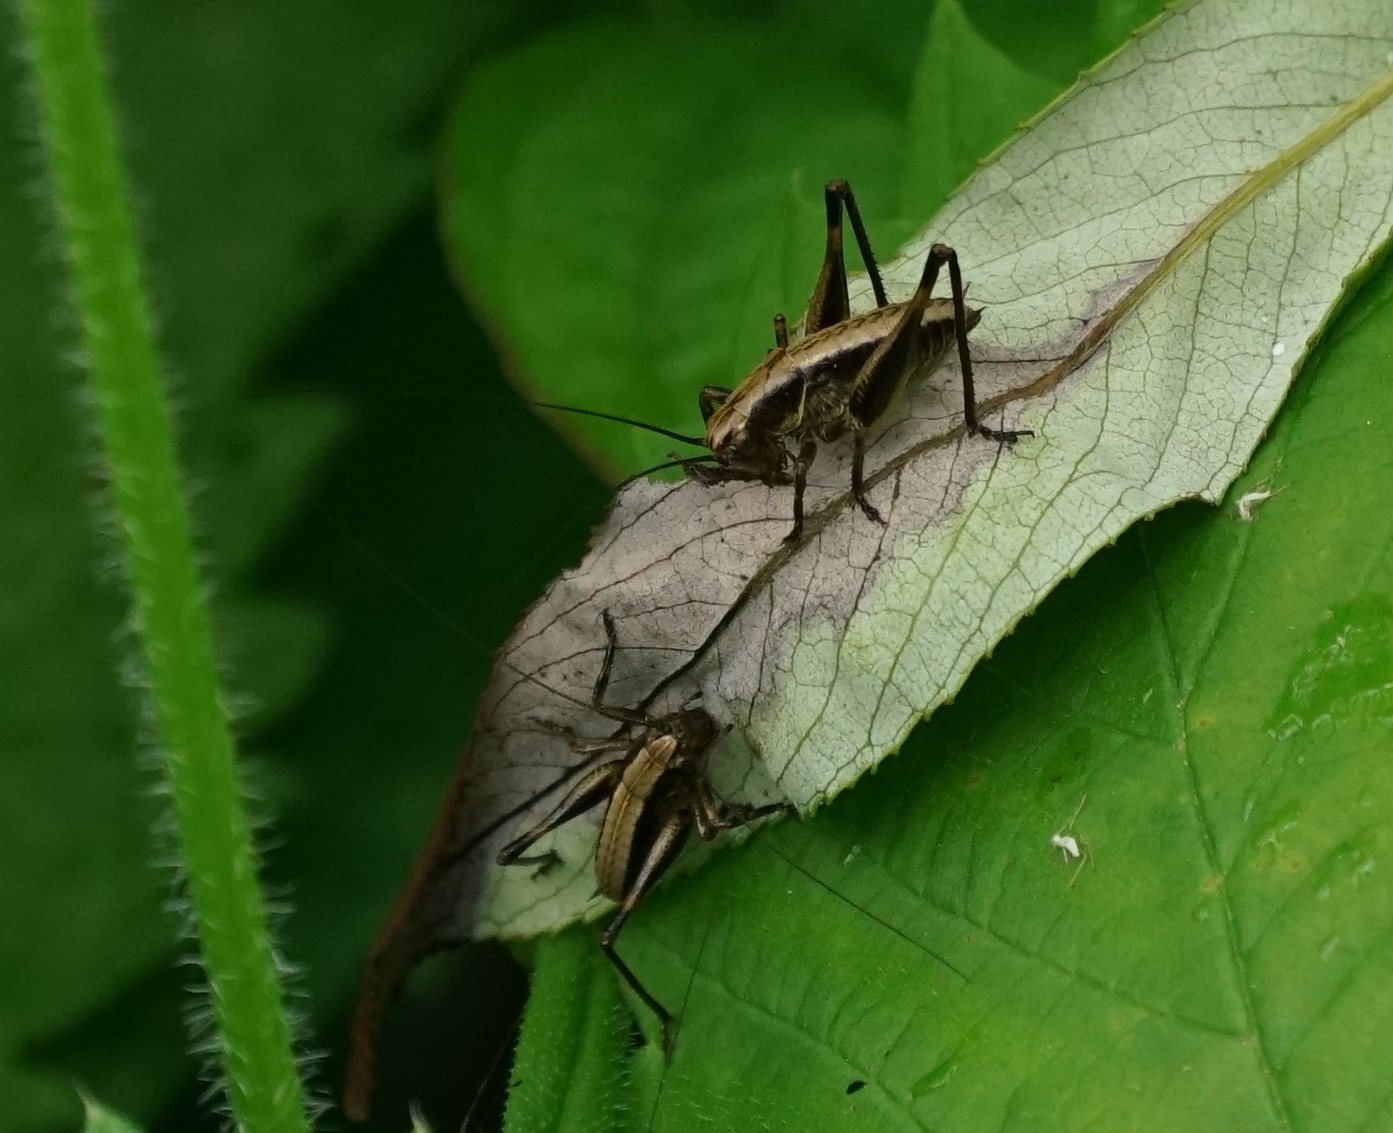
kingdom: Animalia
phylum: Arthropoda
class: Insecta
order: Orthoptera
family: Tettigoniidae
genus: Pholidoptera
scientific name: Pholidoptera griseoaptera
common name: Dark bush-cricket
